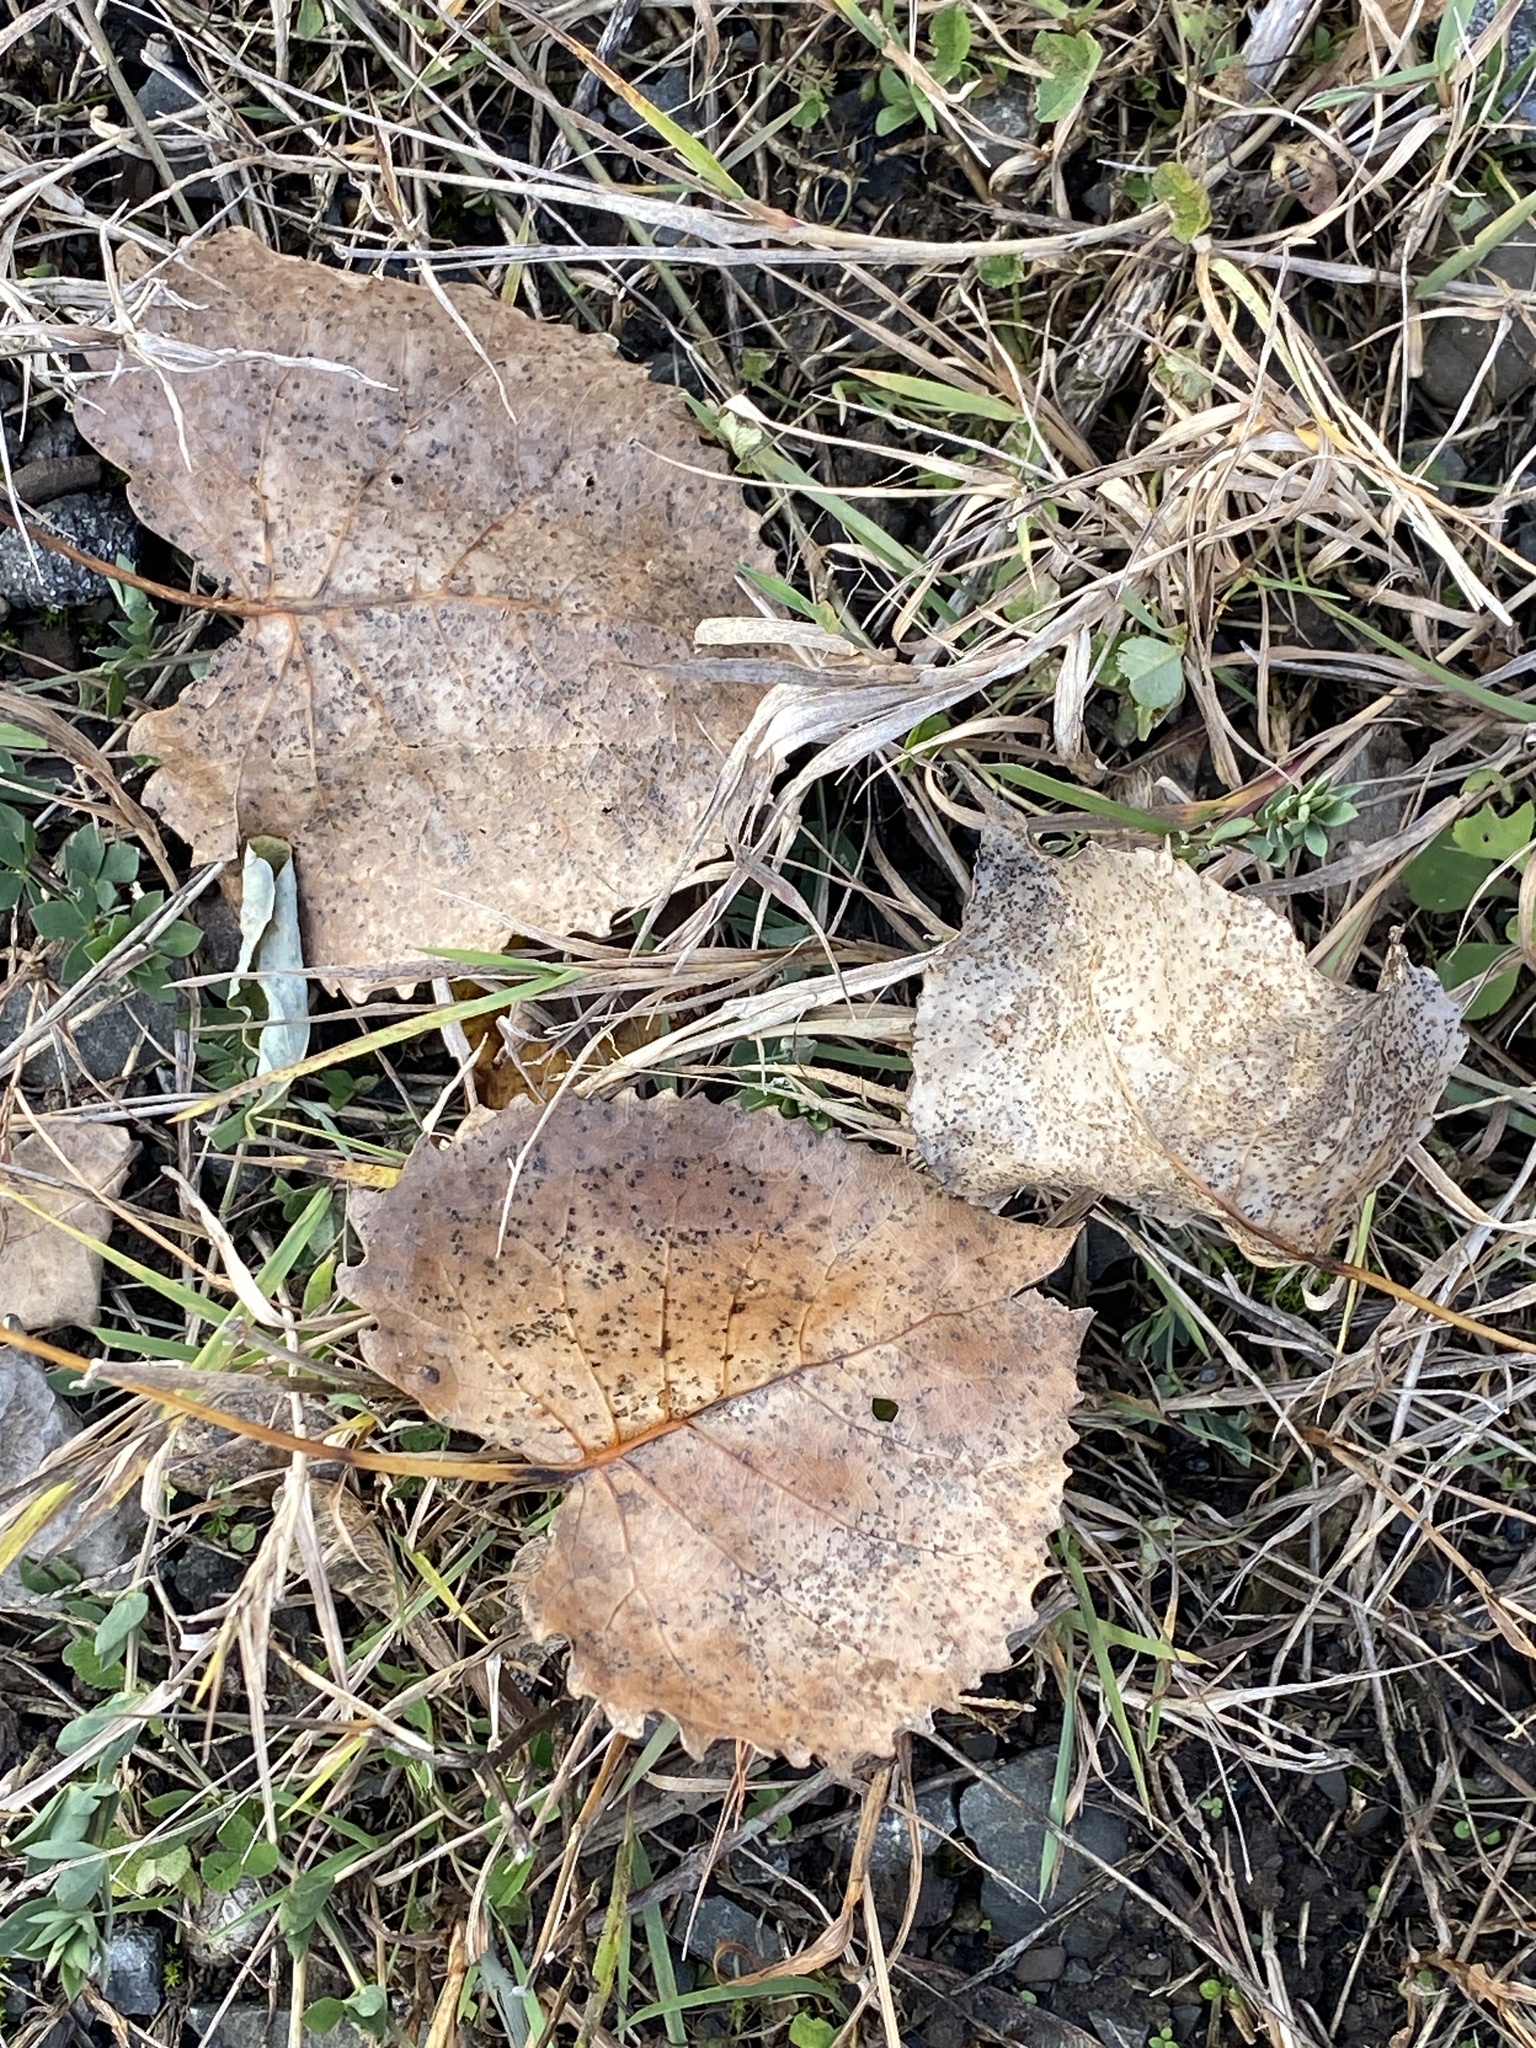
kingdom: Plantae
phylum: Tracheophyta
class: Magnoliopsida
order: Malpighiales
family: Salicaceae
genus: Populus
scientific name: Populus deltoides
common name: Eastern cottonwood
